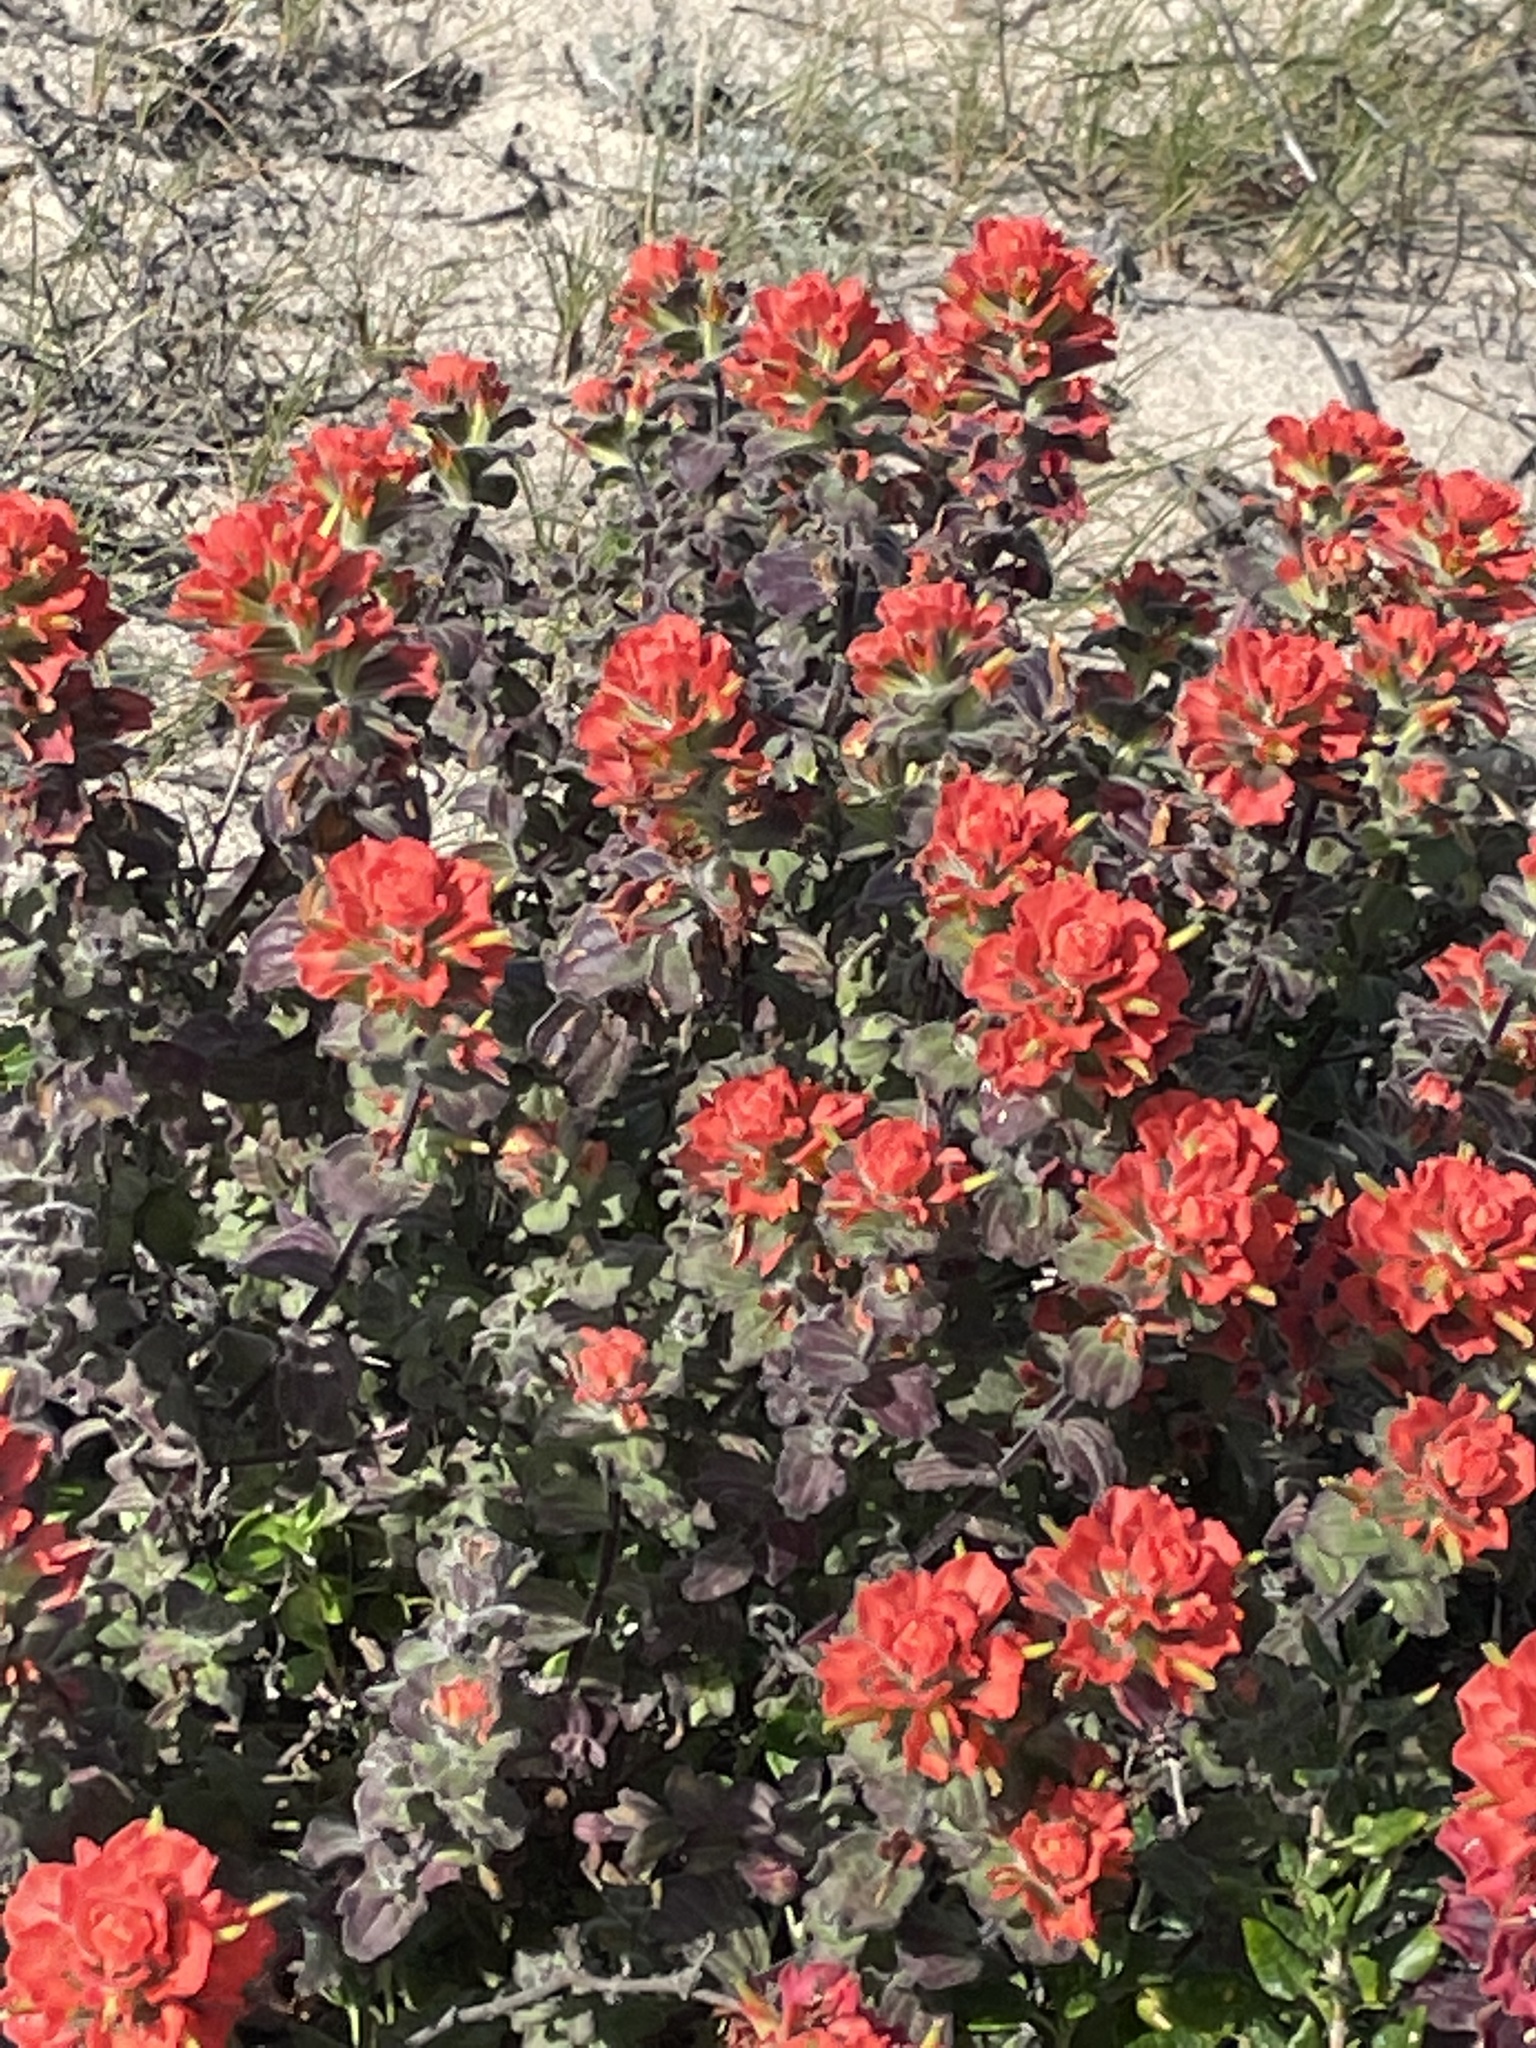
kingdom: Plantae
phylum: Tracheophyta
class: Magnoliopsida
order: Lamiales
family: Orobanchaceae
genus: Castilleja
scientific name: Castilleja latifolia
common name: Monterey indian paintbrush
